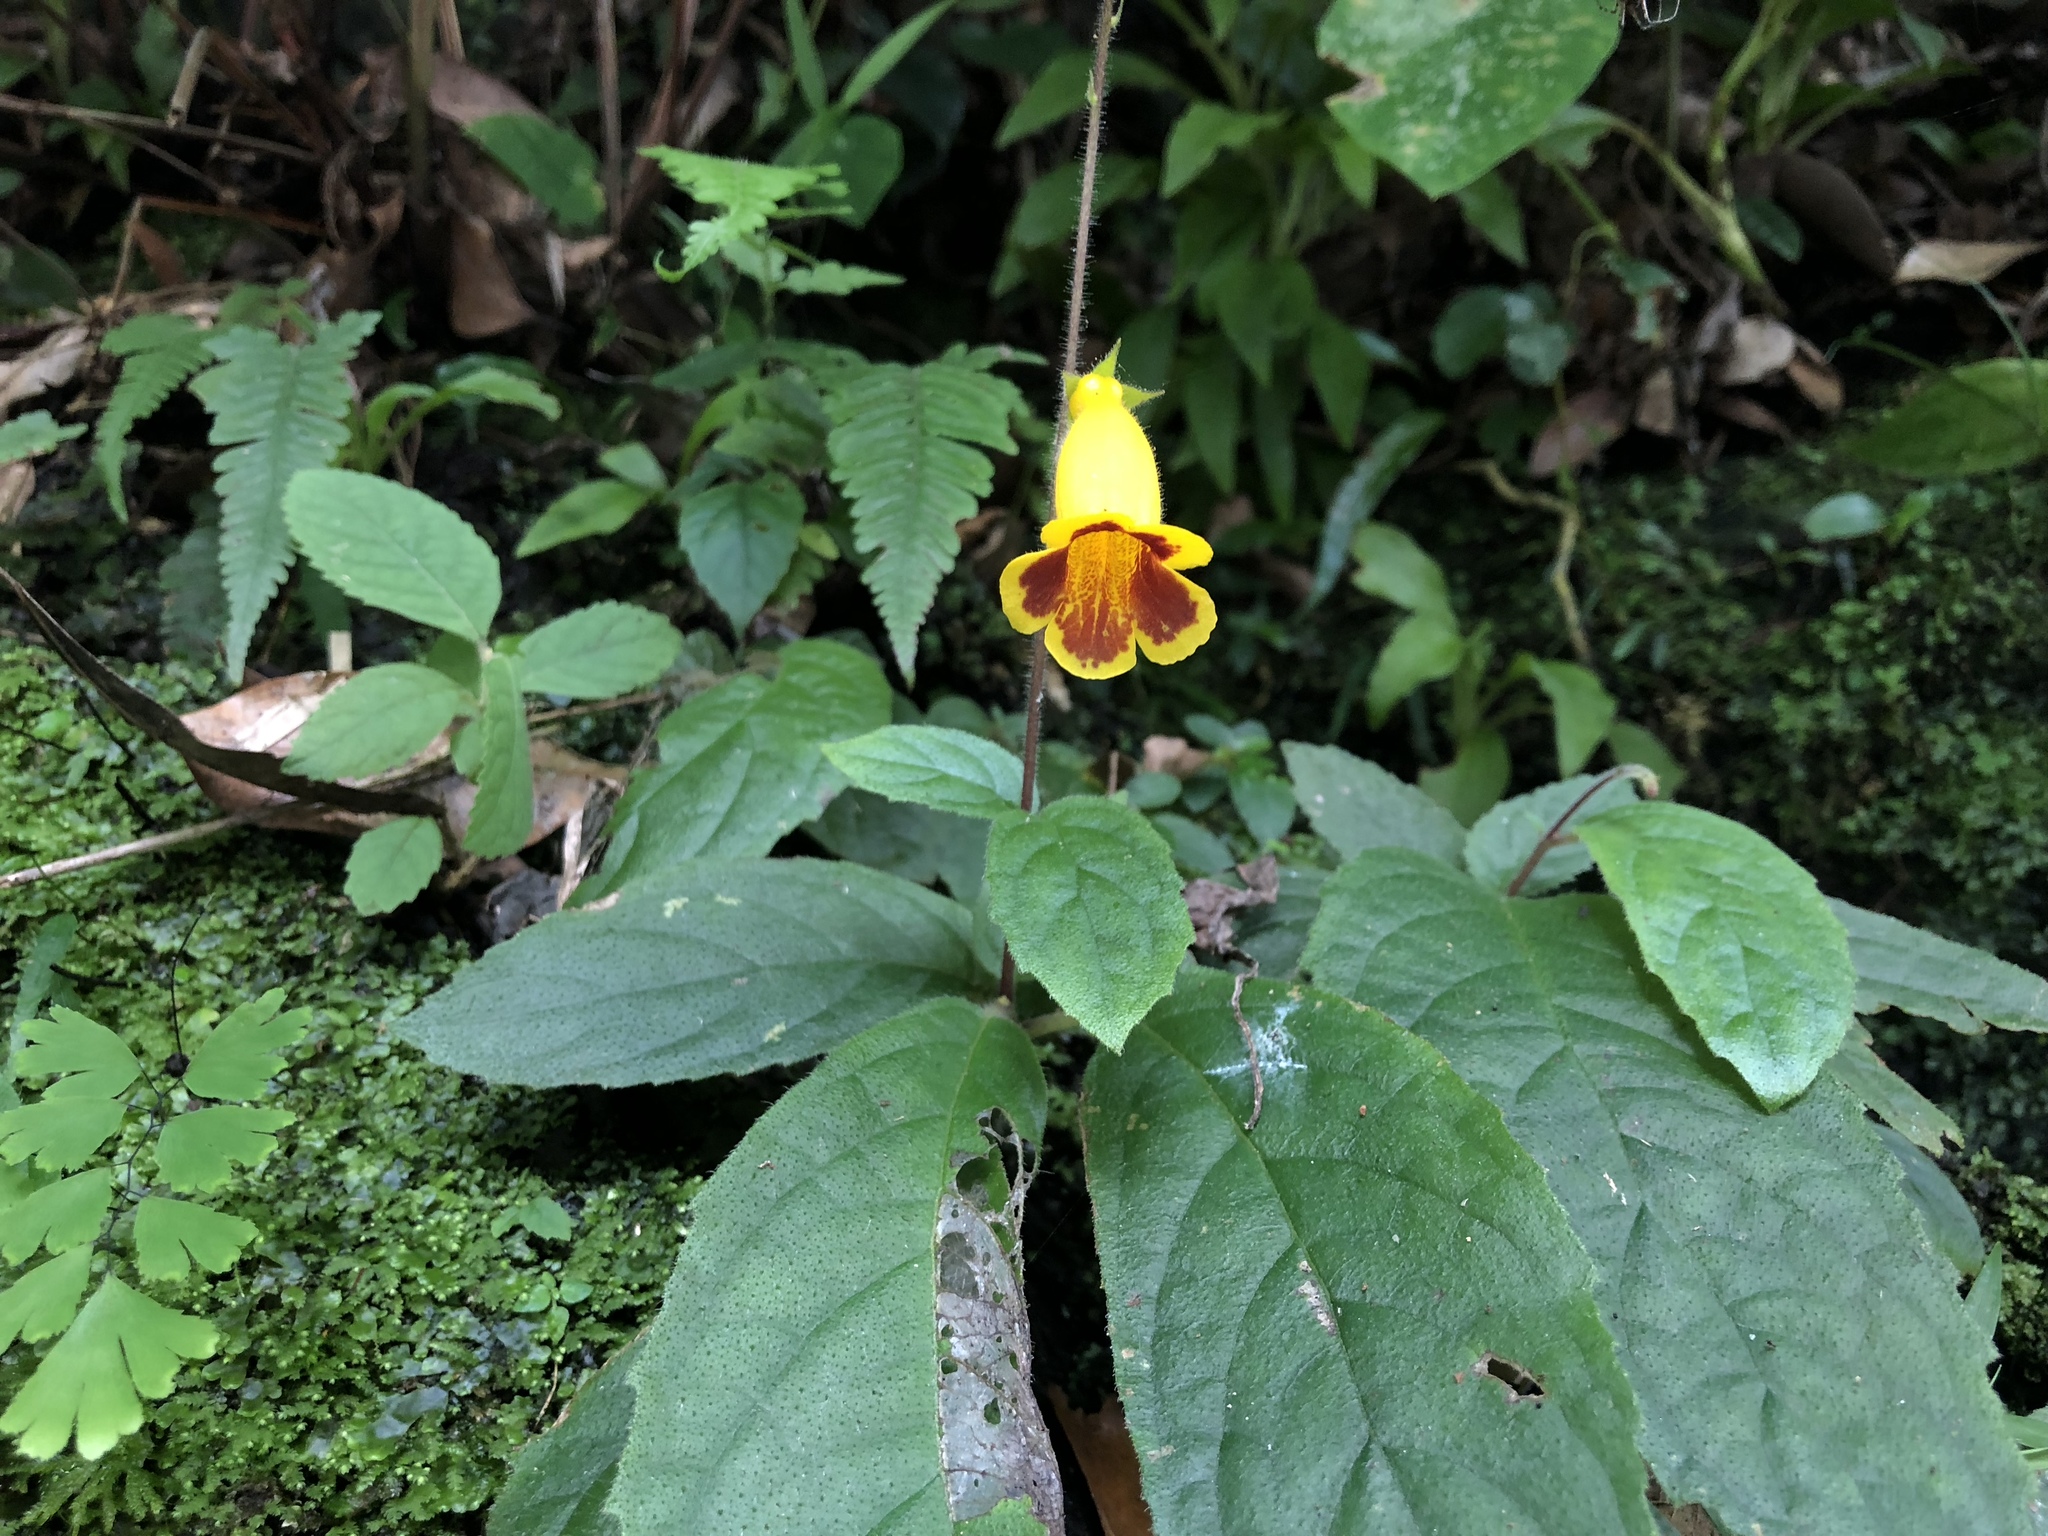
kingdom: Plantae
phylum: Tracheophyta
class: Magnoliopsida
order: Lamiales
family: Gesneriaceae
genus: Titanotrichum
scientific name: Titanotrichum oldhamii
